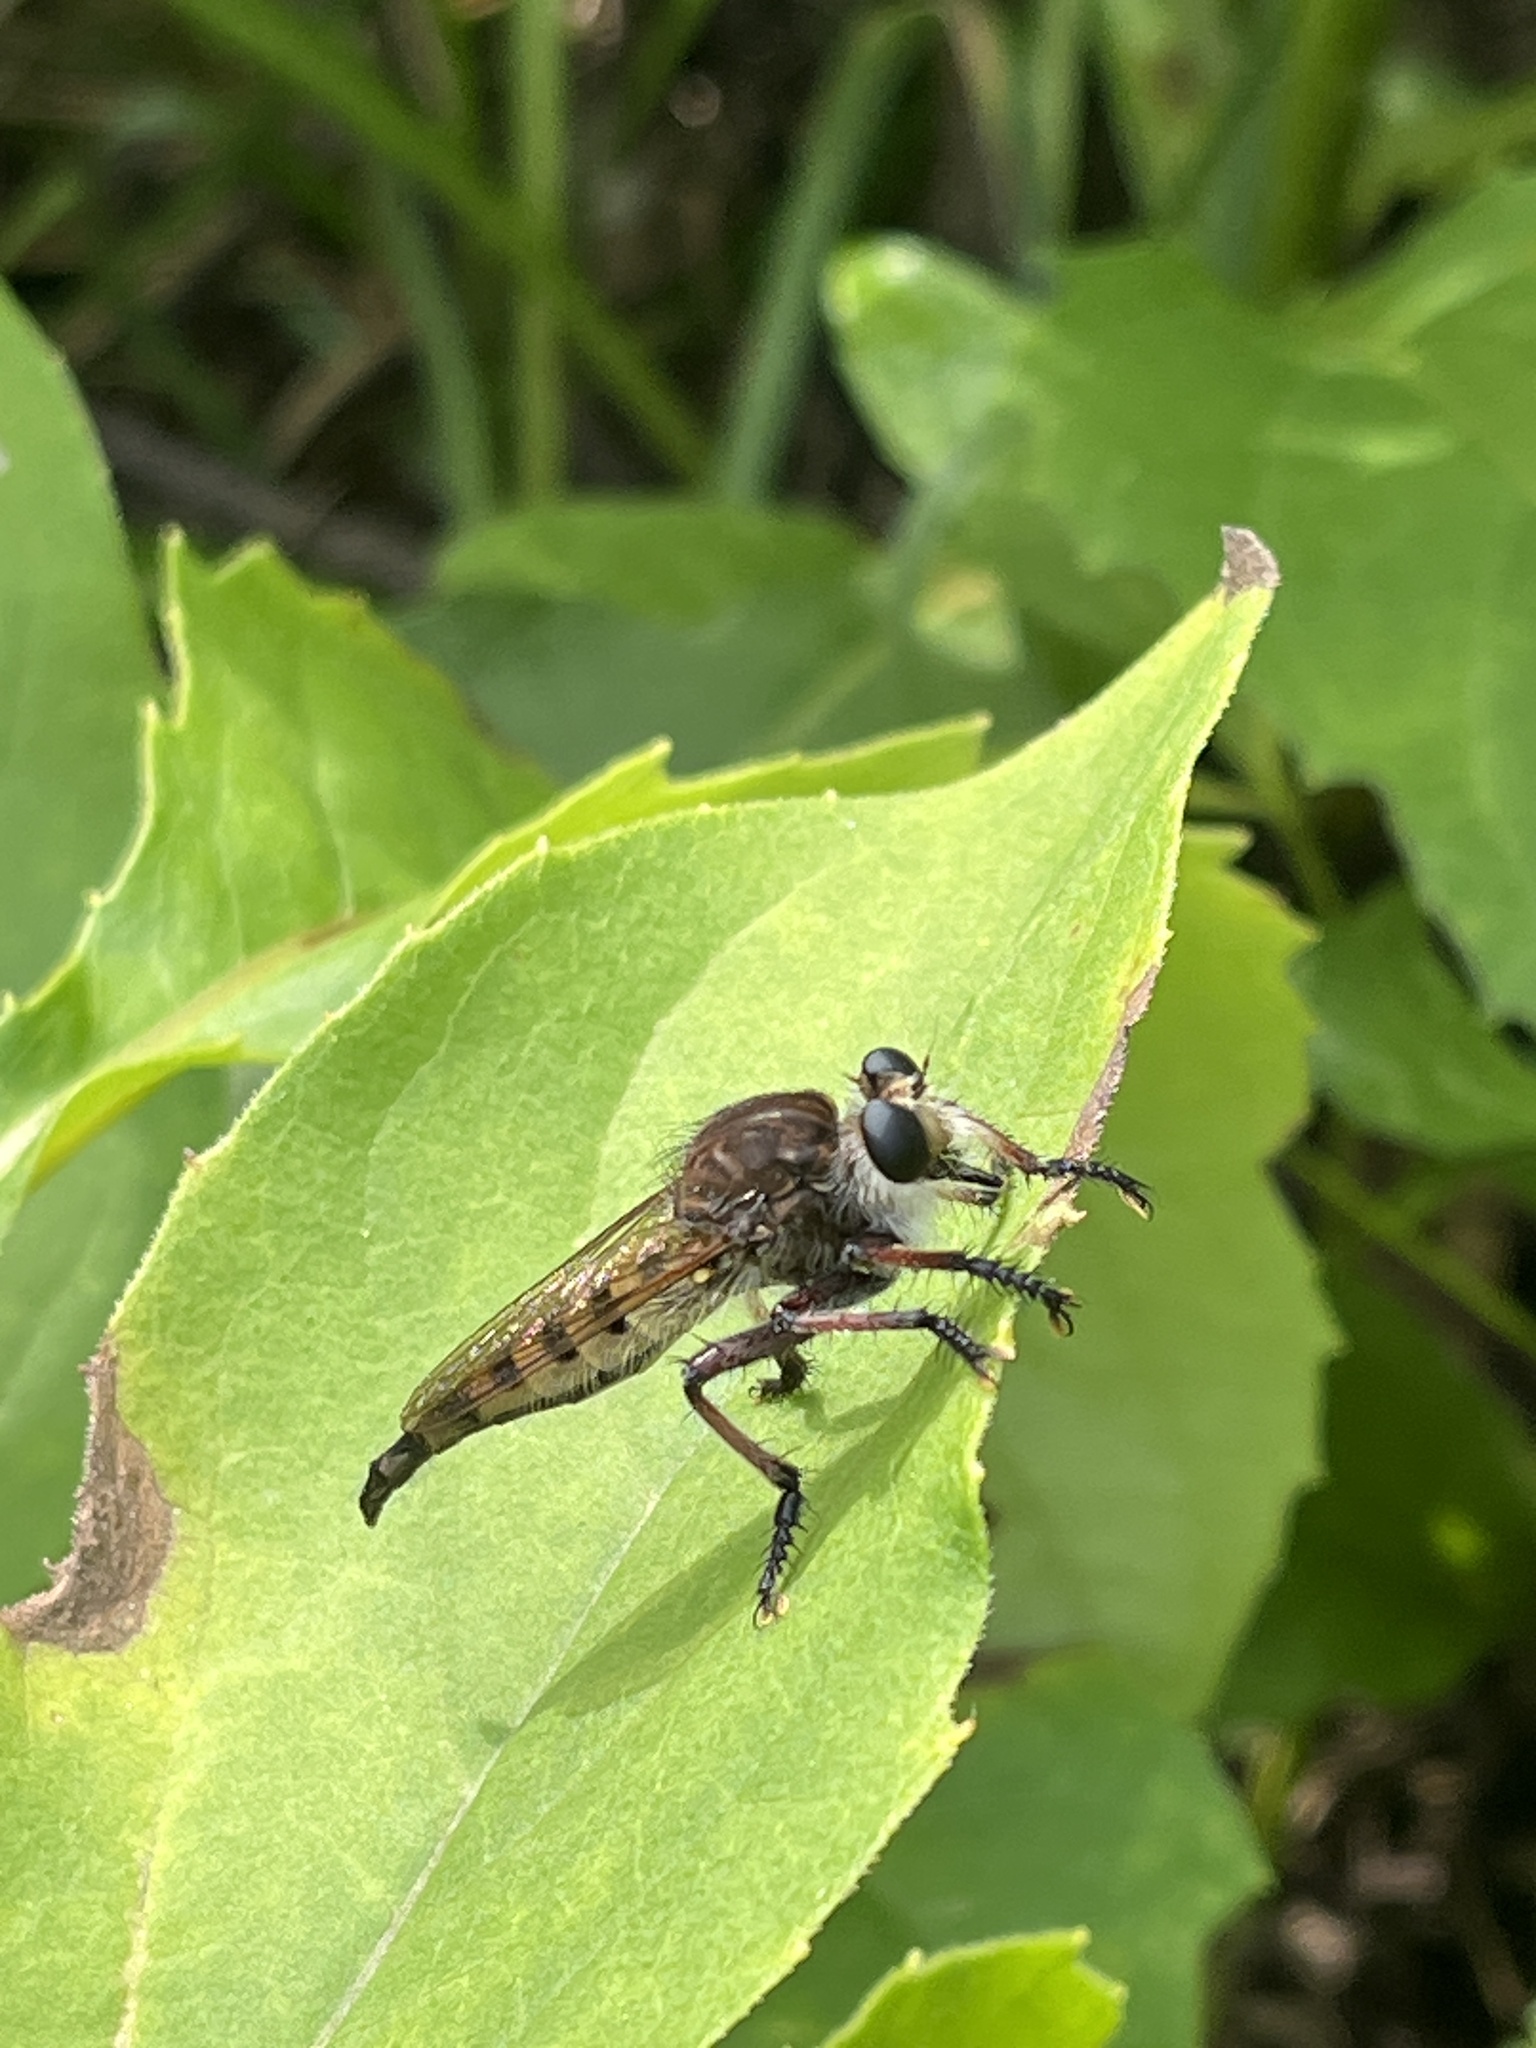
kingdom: Animalia
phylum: Arthropoda
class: Insecta
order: Diptera
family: Asilidae
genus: Promachus
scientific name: Promachus hinei
